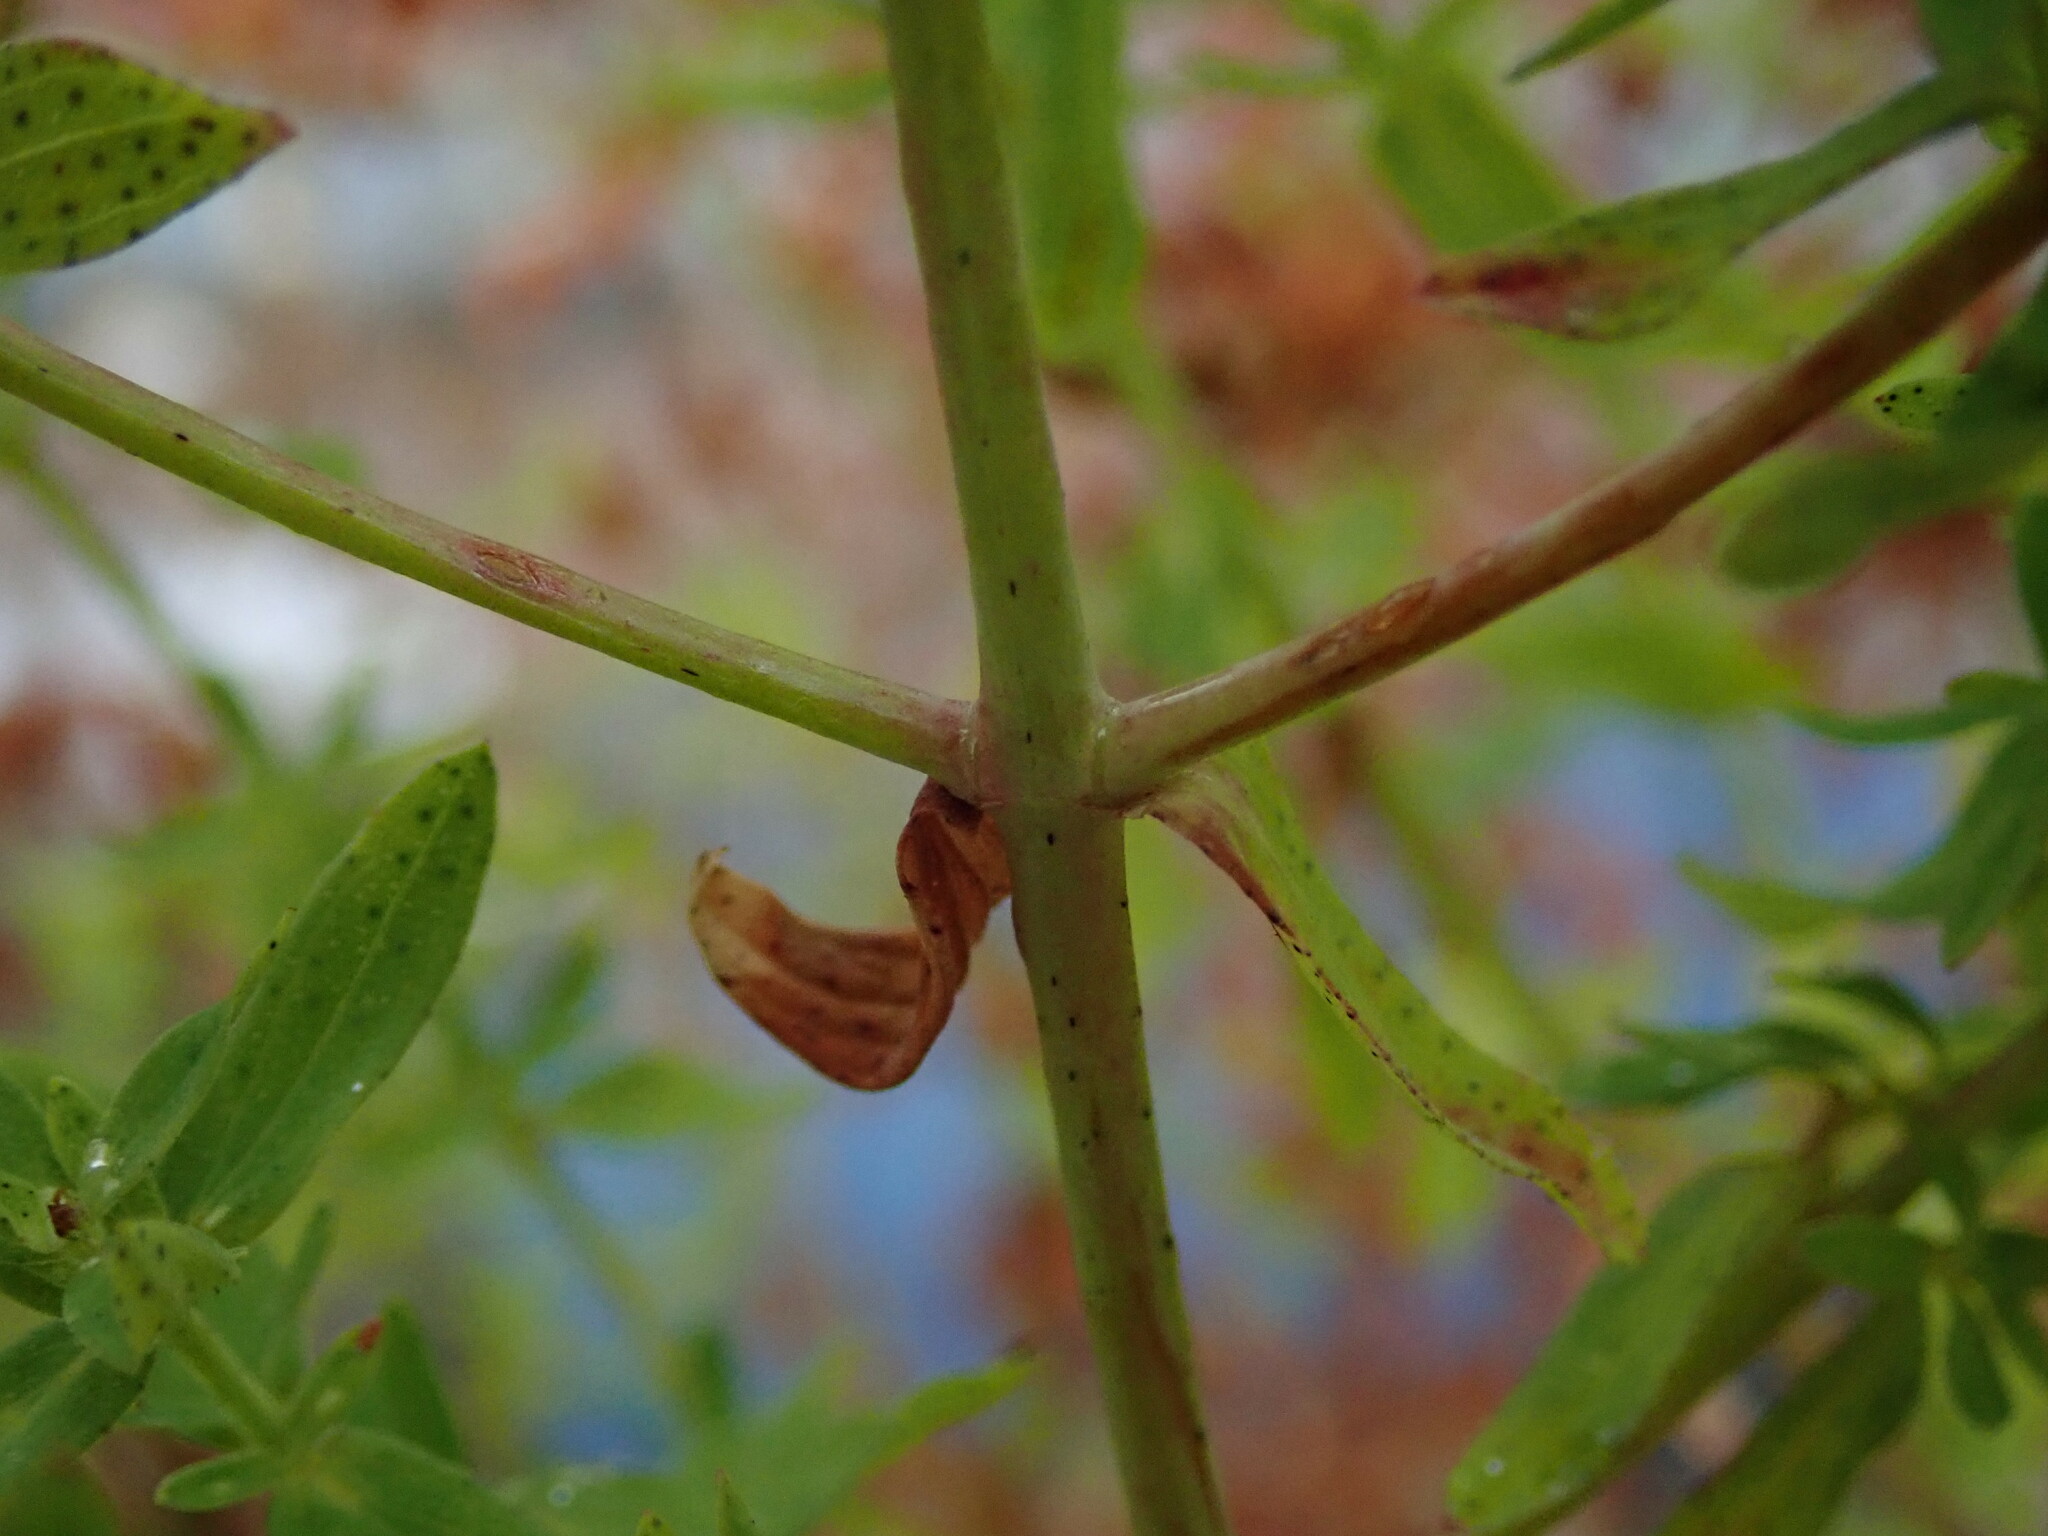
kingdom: Plantae
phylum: Tracheophyta
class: Magnoliopsida
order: Malpighiales
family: Hypericaceae
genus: Hypericum
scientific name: Hypericum perforatum
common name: Common st. johnswort
